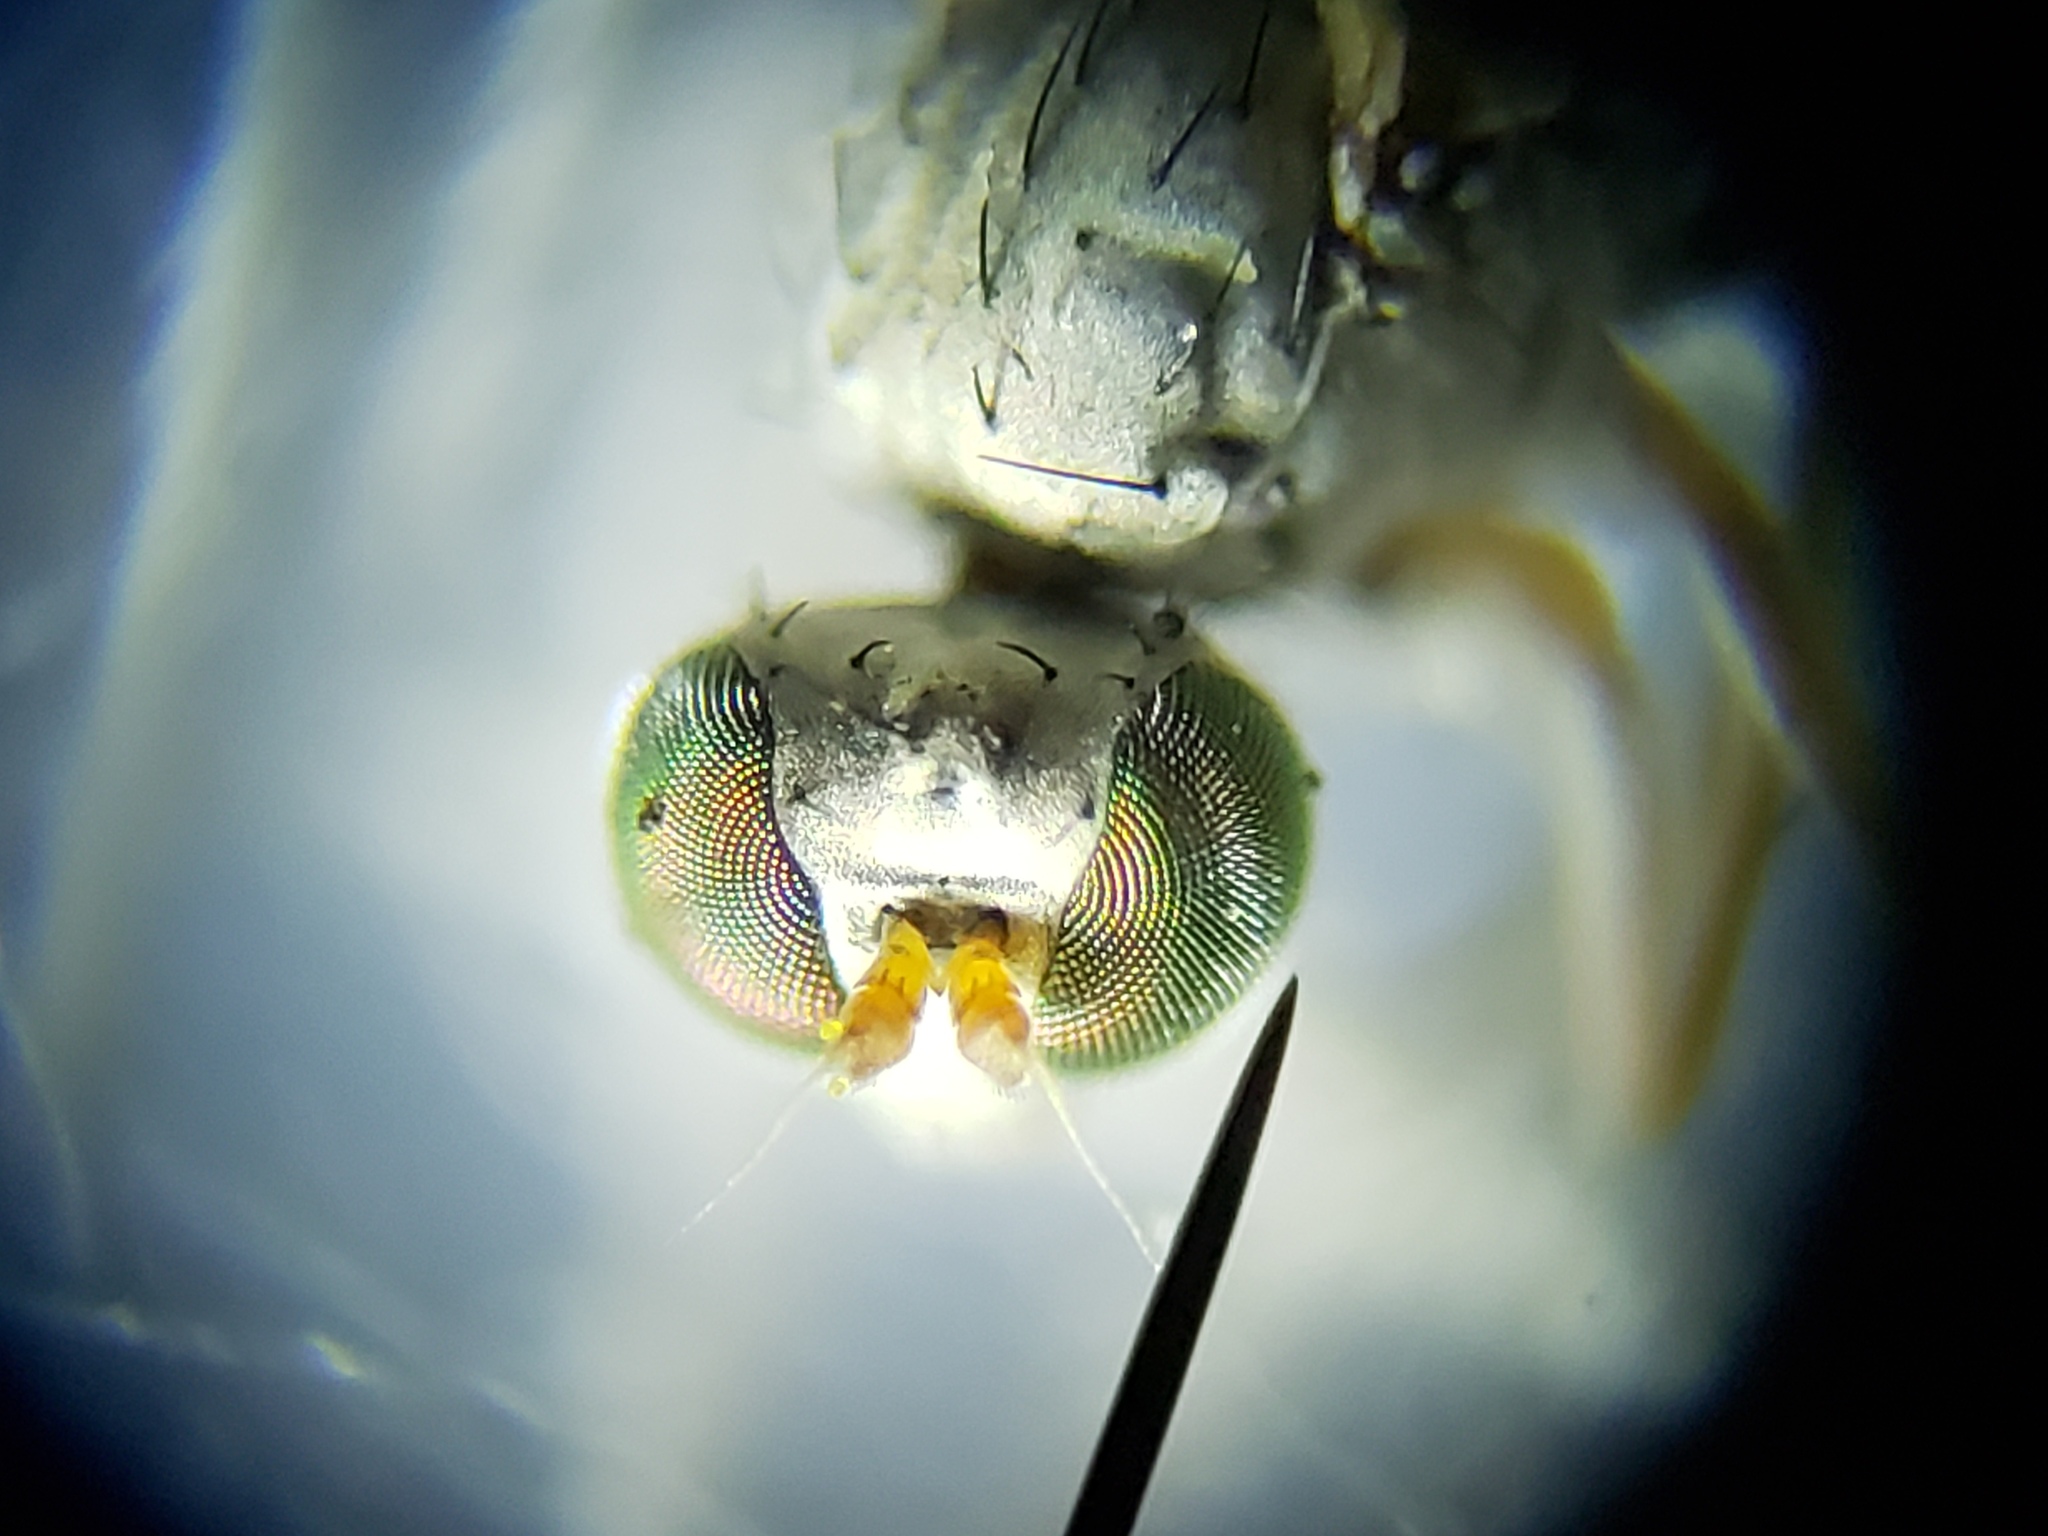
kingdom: Animalia
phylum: Arthropoda
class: Insecta
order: Diptera
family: Dolichopodidae
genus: Thinophilus
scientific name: Thinophilus bimaculatus
